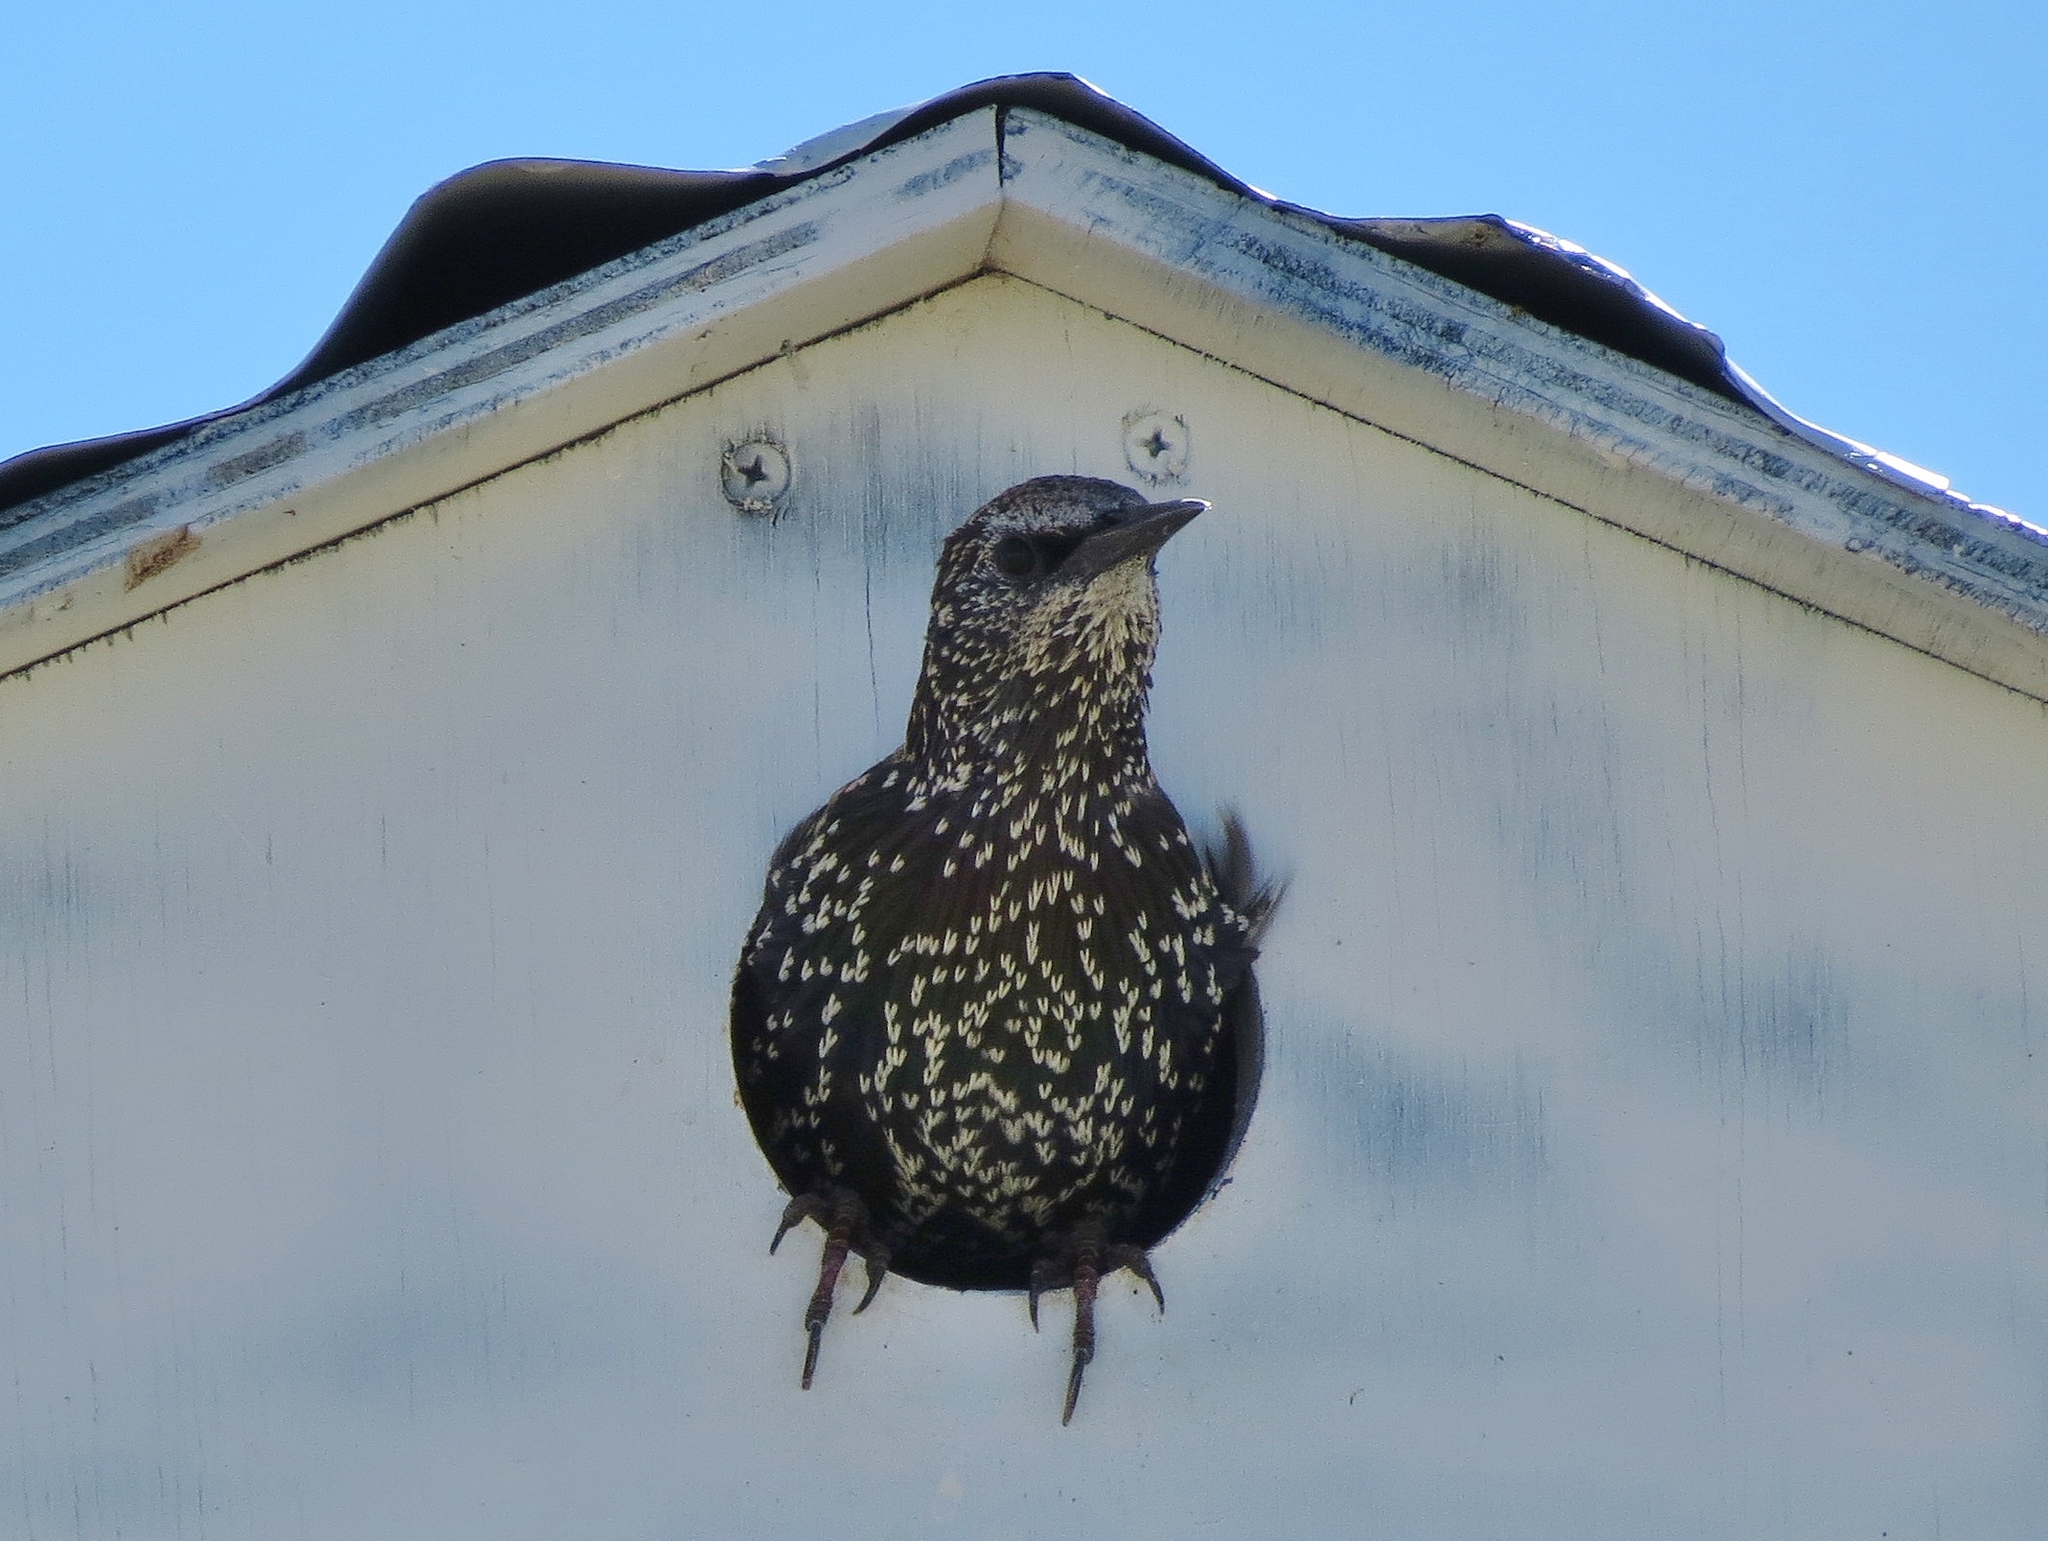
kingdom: Animalia
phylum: Chordata
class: Aves
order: Passeriformes
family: Sturnidae
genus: Sturnus
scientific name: Sturnus vulgaris
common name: Common starling
